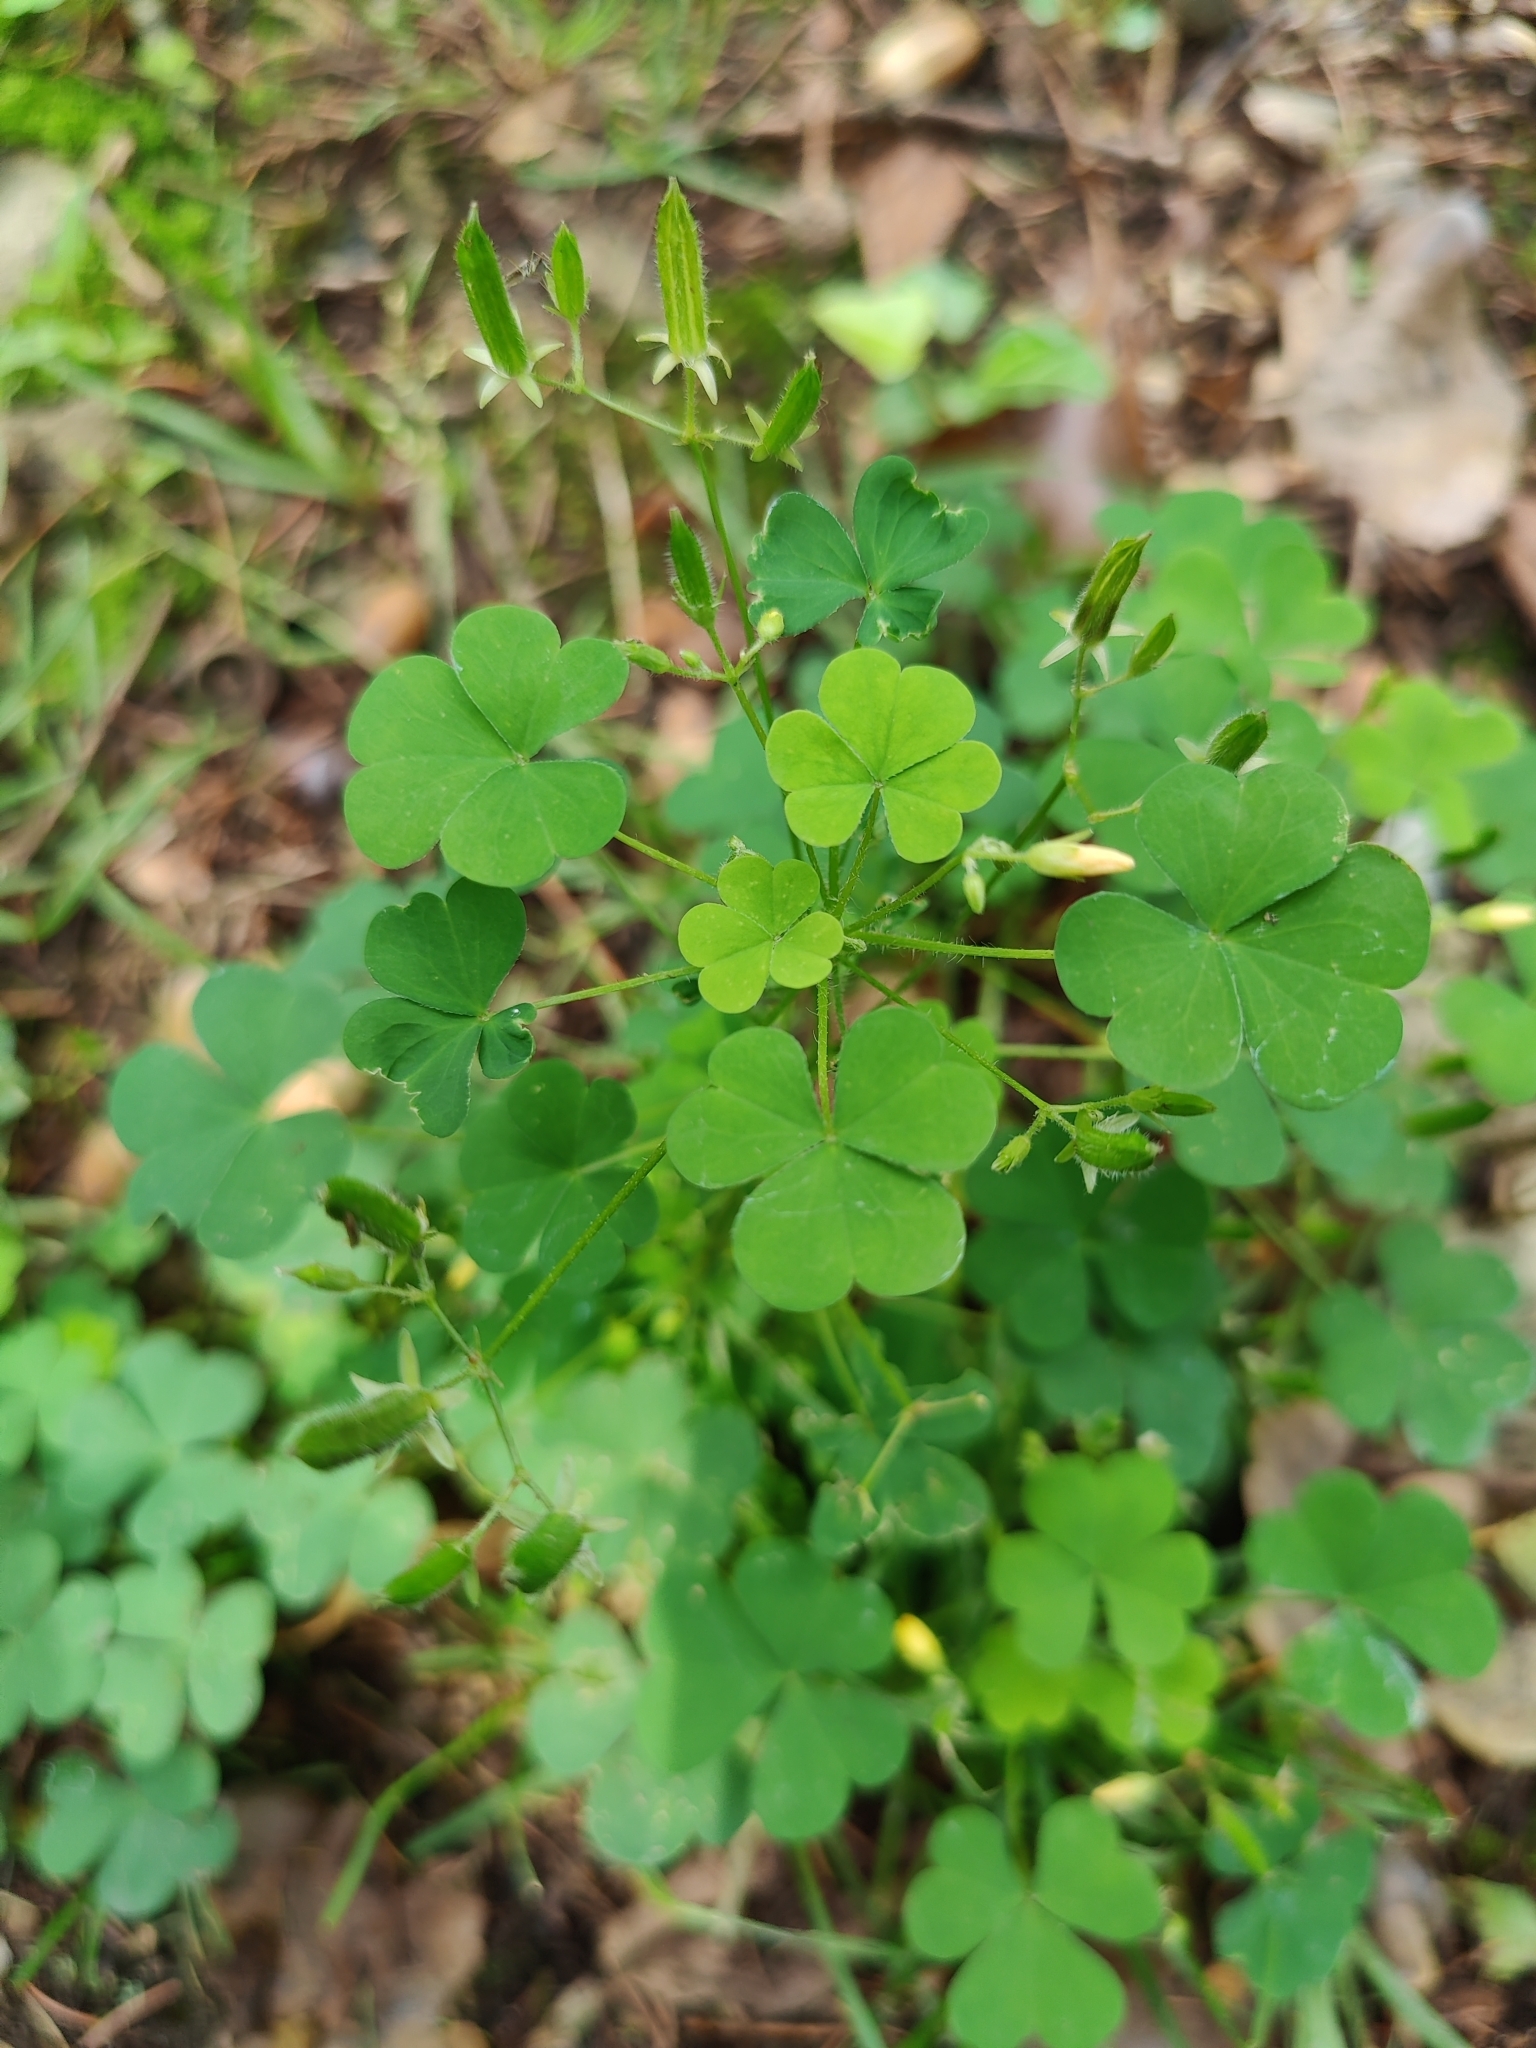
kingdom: Plantae
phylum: Tracheophyta
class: Magnoliopsida
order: Oxalidales
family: Oxalidaceae
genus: Oxalis
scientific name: Oxalis stricta
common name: Upright yellow-sorrel
